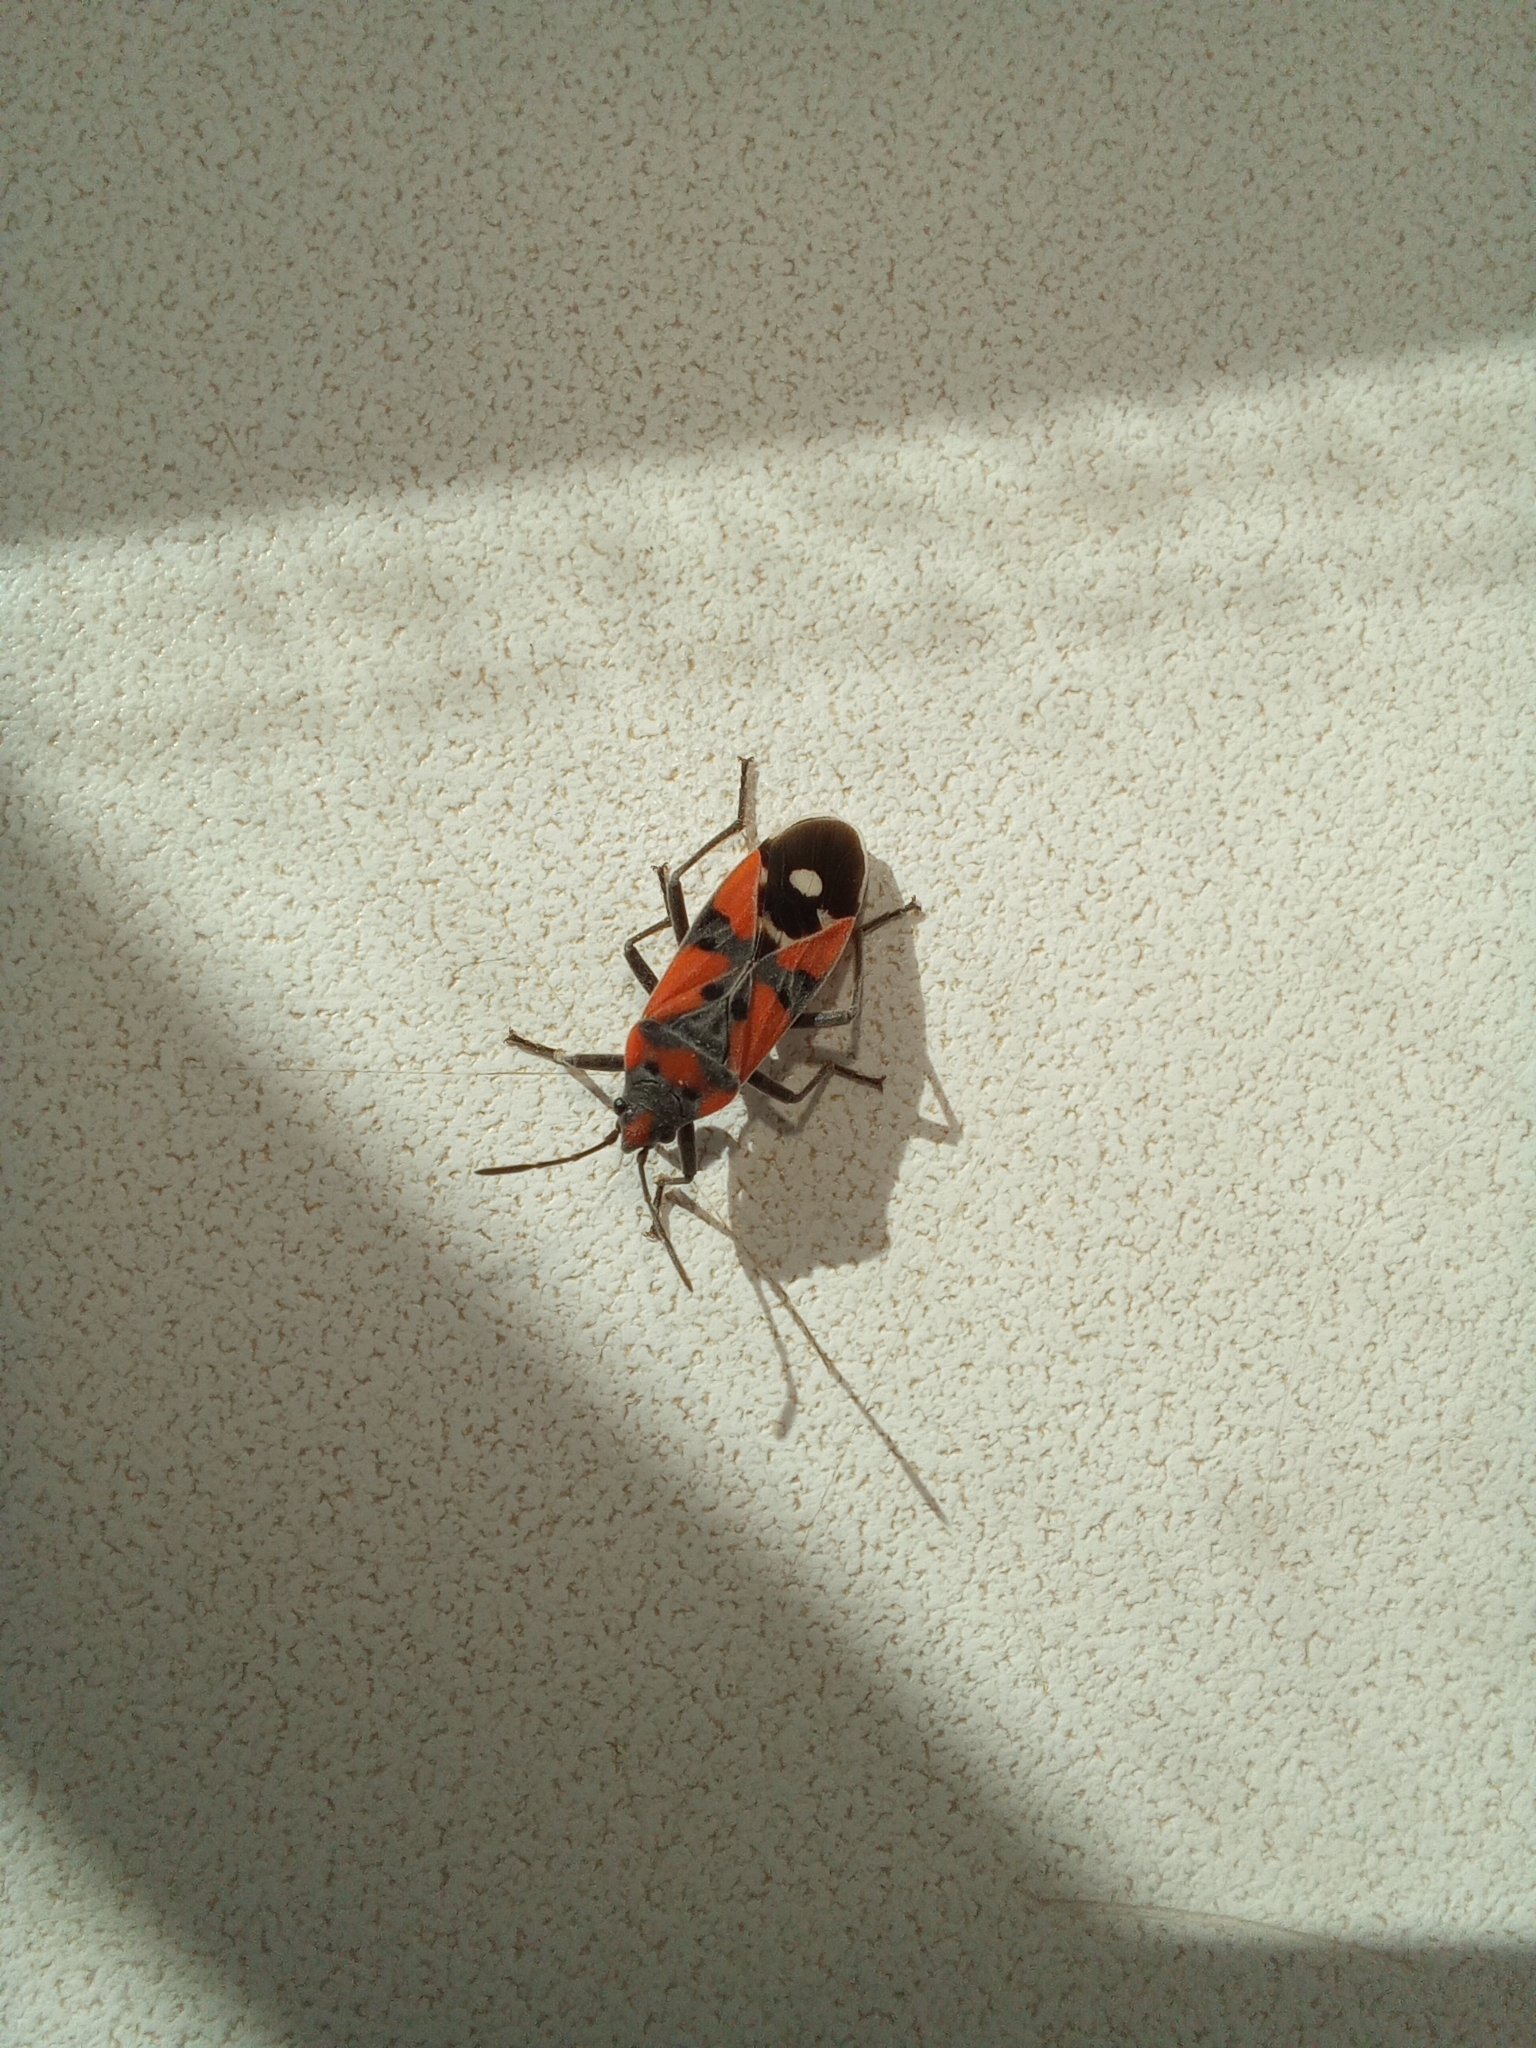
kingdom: Animalia
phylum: Arthropoda
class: Insecta
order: Hemiptera
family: Lygaeidae
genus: Lygaeus
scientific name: Lygaeus equestris
